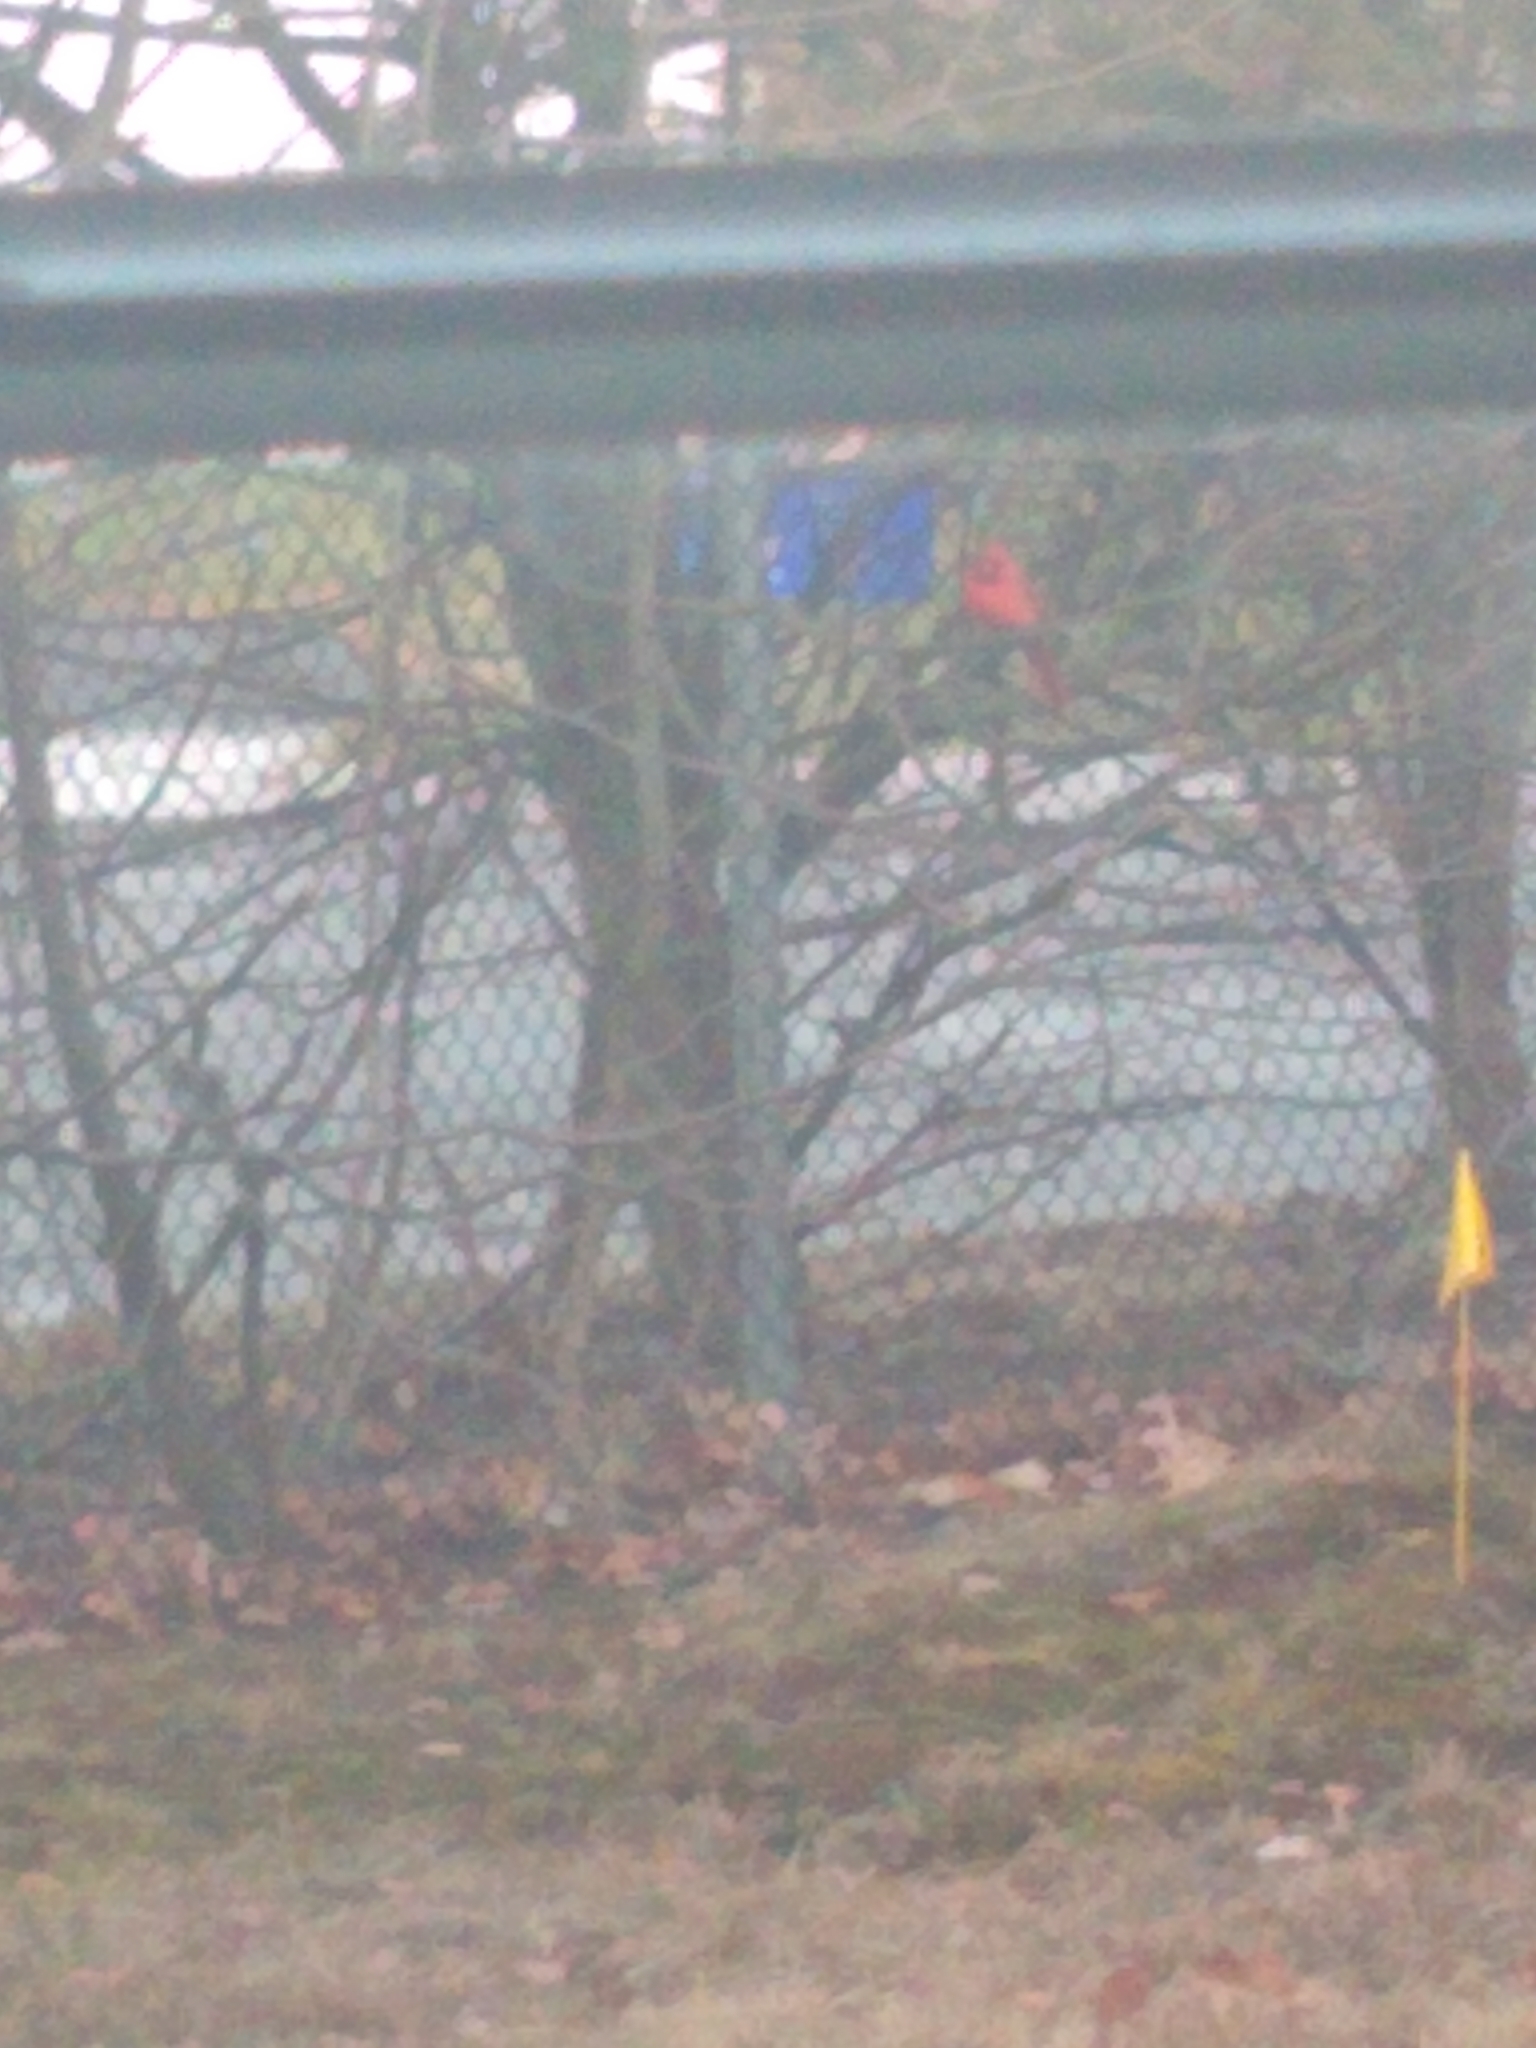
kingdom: Animalia
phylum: Chordata
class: Aves
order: Passeriformes
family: Cardinalidae
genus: Cardinalis
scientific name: Cardinalis cardinalis
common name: Northern cardinal
